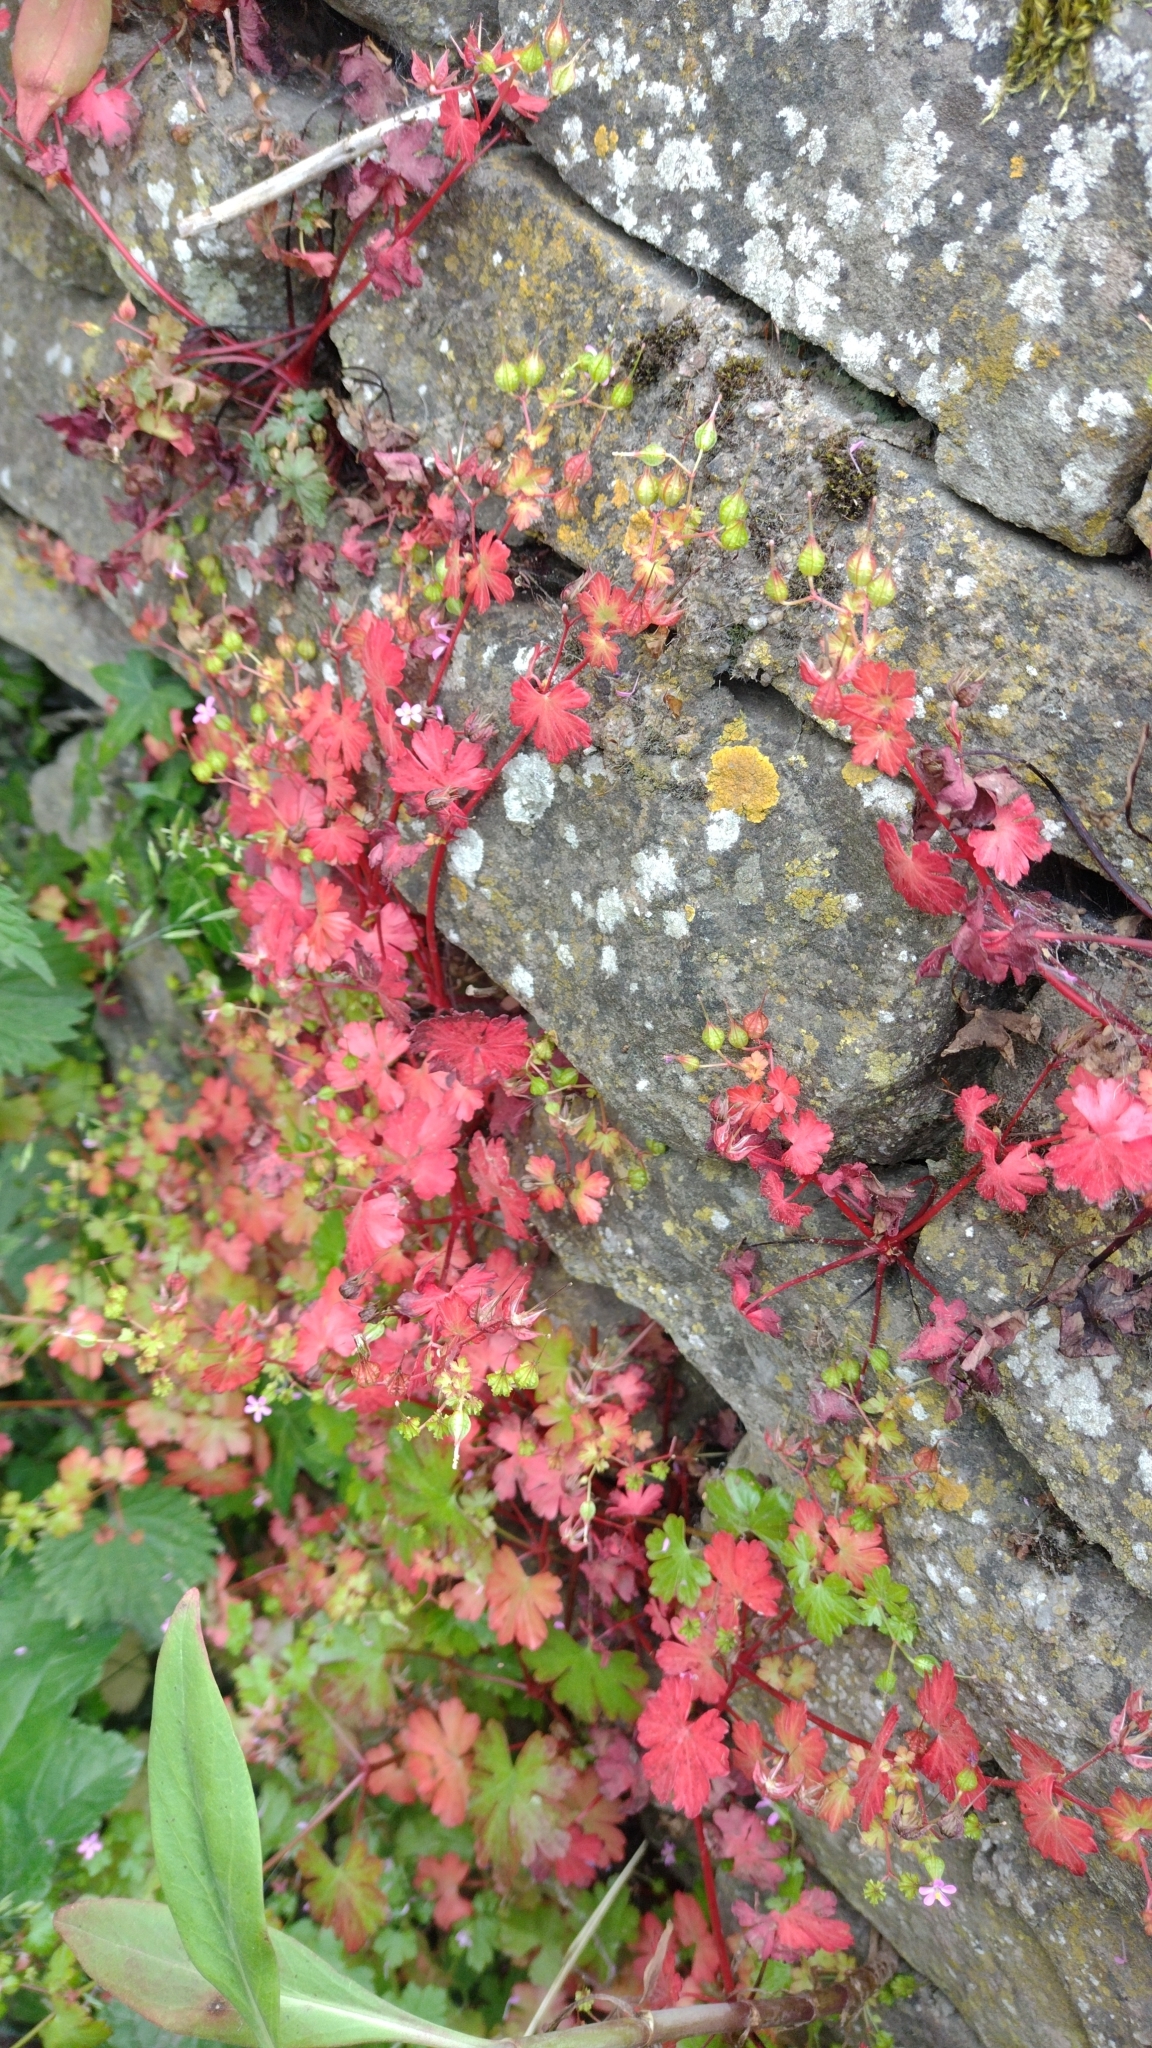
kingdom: Plantae
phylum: Tracheophyta
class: Magnoliopsida
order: Geraniales
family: Geraniaceae
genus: Geranium
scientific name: Geranium lucidum
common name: Shining crane's-bill
